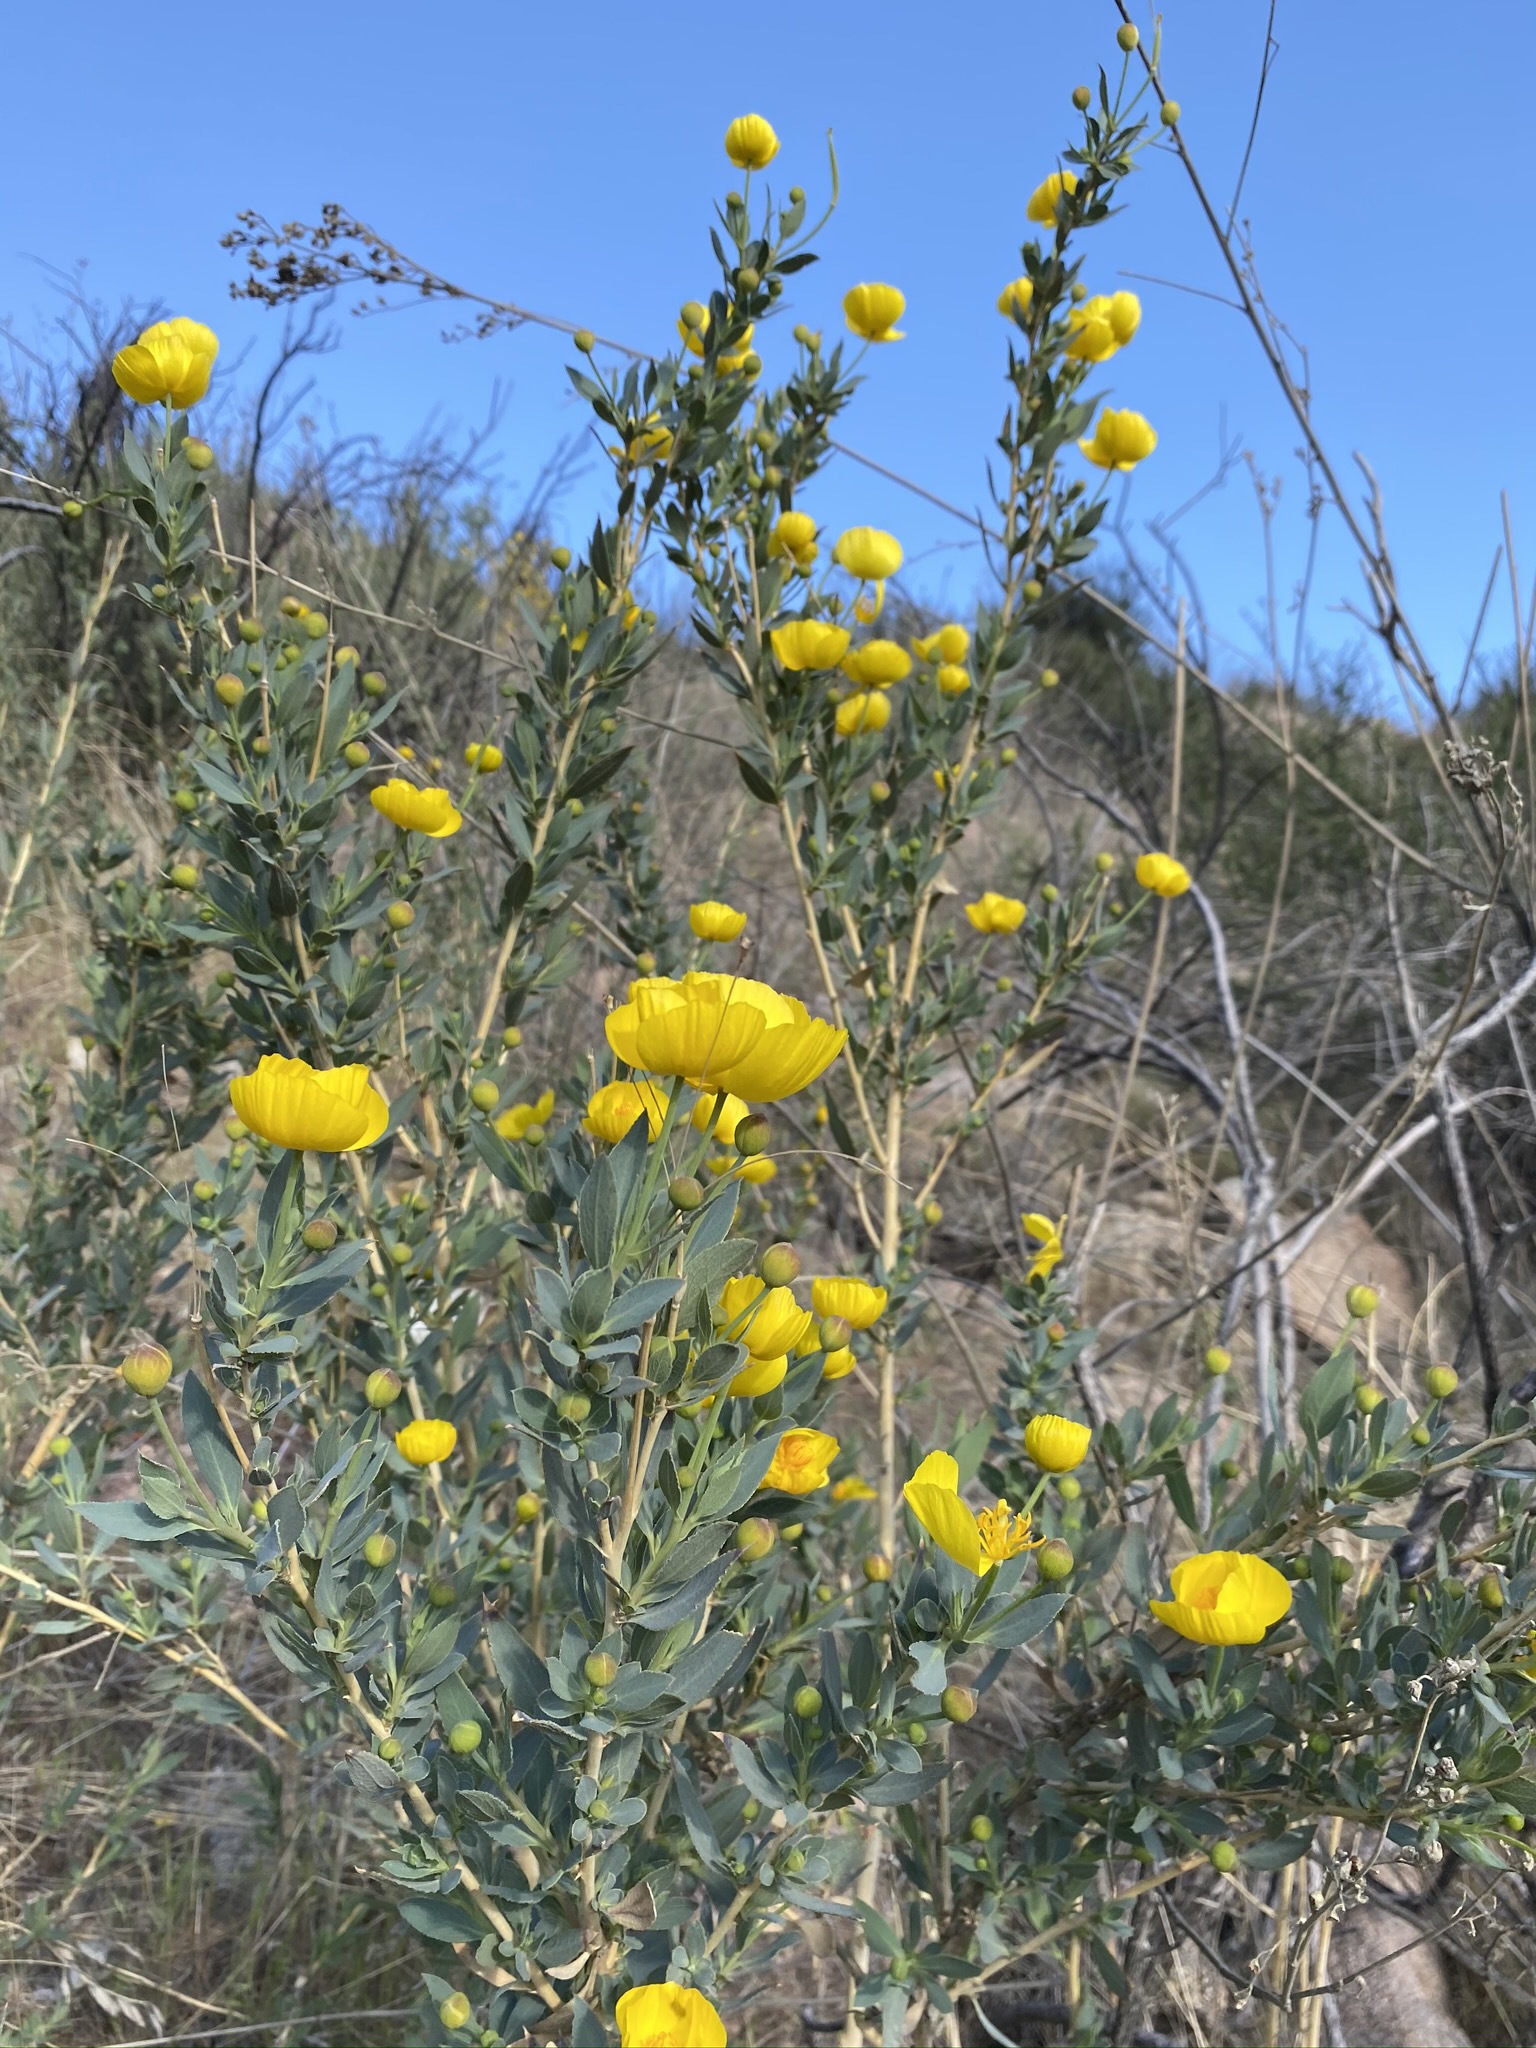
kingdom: Plantae
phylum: Tracheophyta
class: Magnoliopsida
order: Ranunculales
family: Papaveraceae
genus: Dendromecon
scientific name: Dendromecon rigida
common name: Tree poppy
